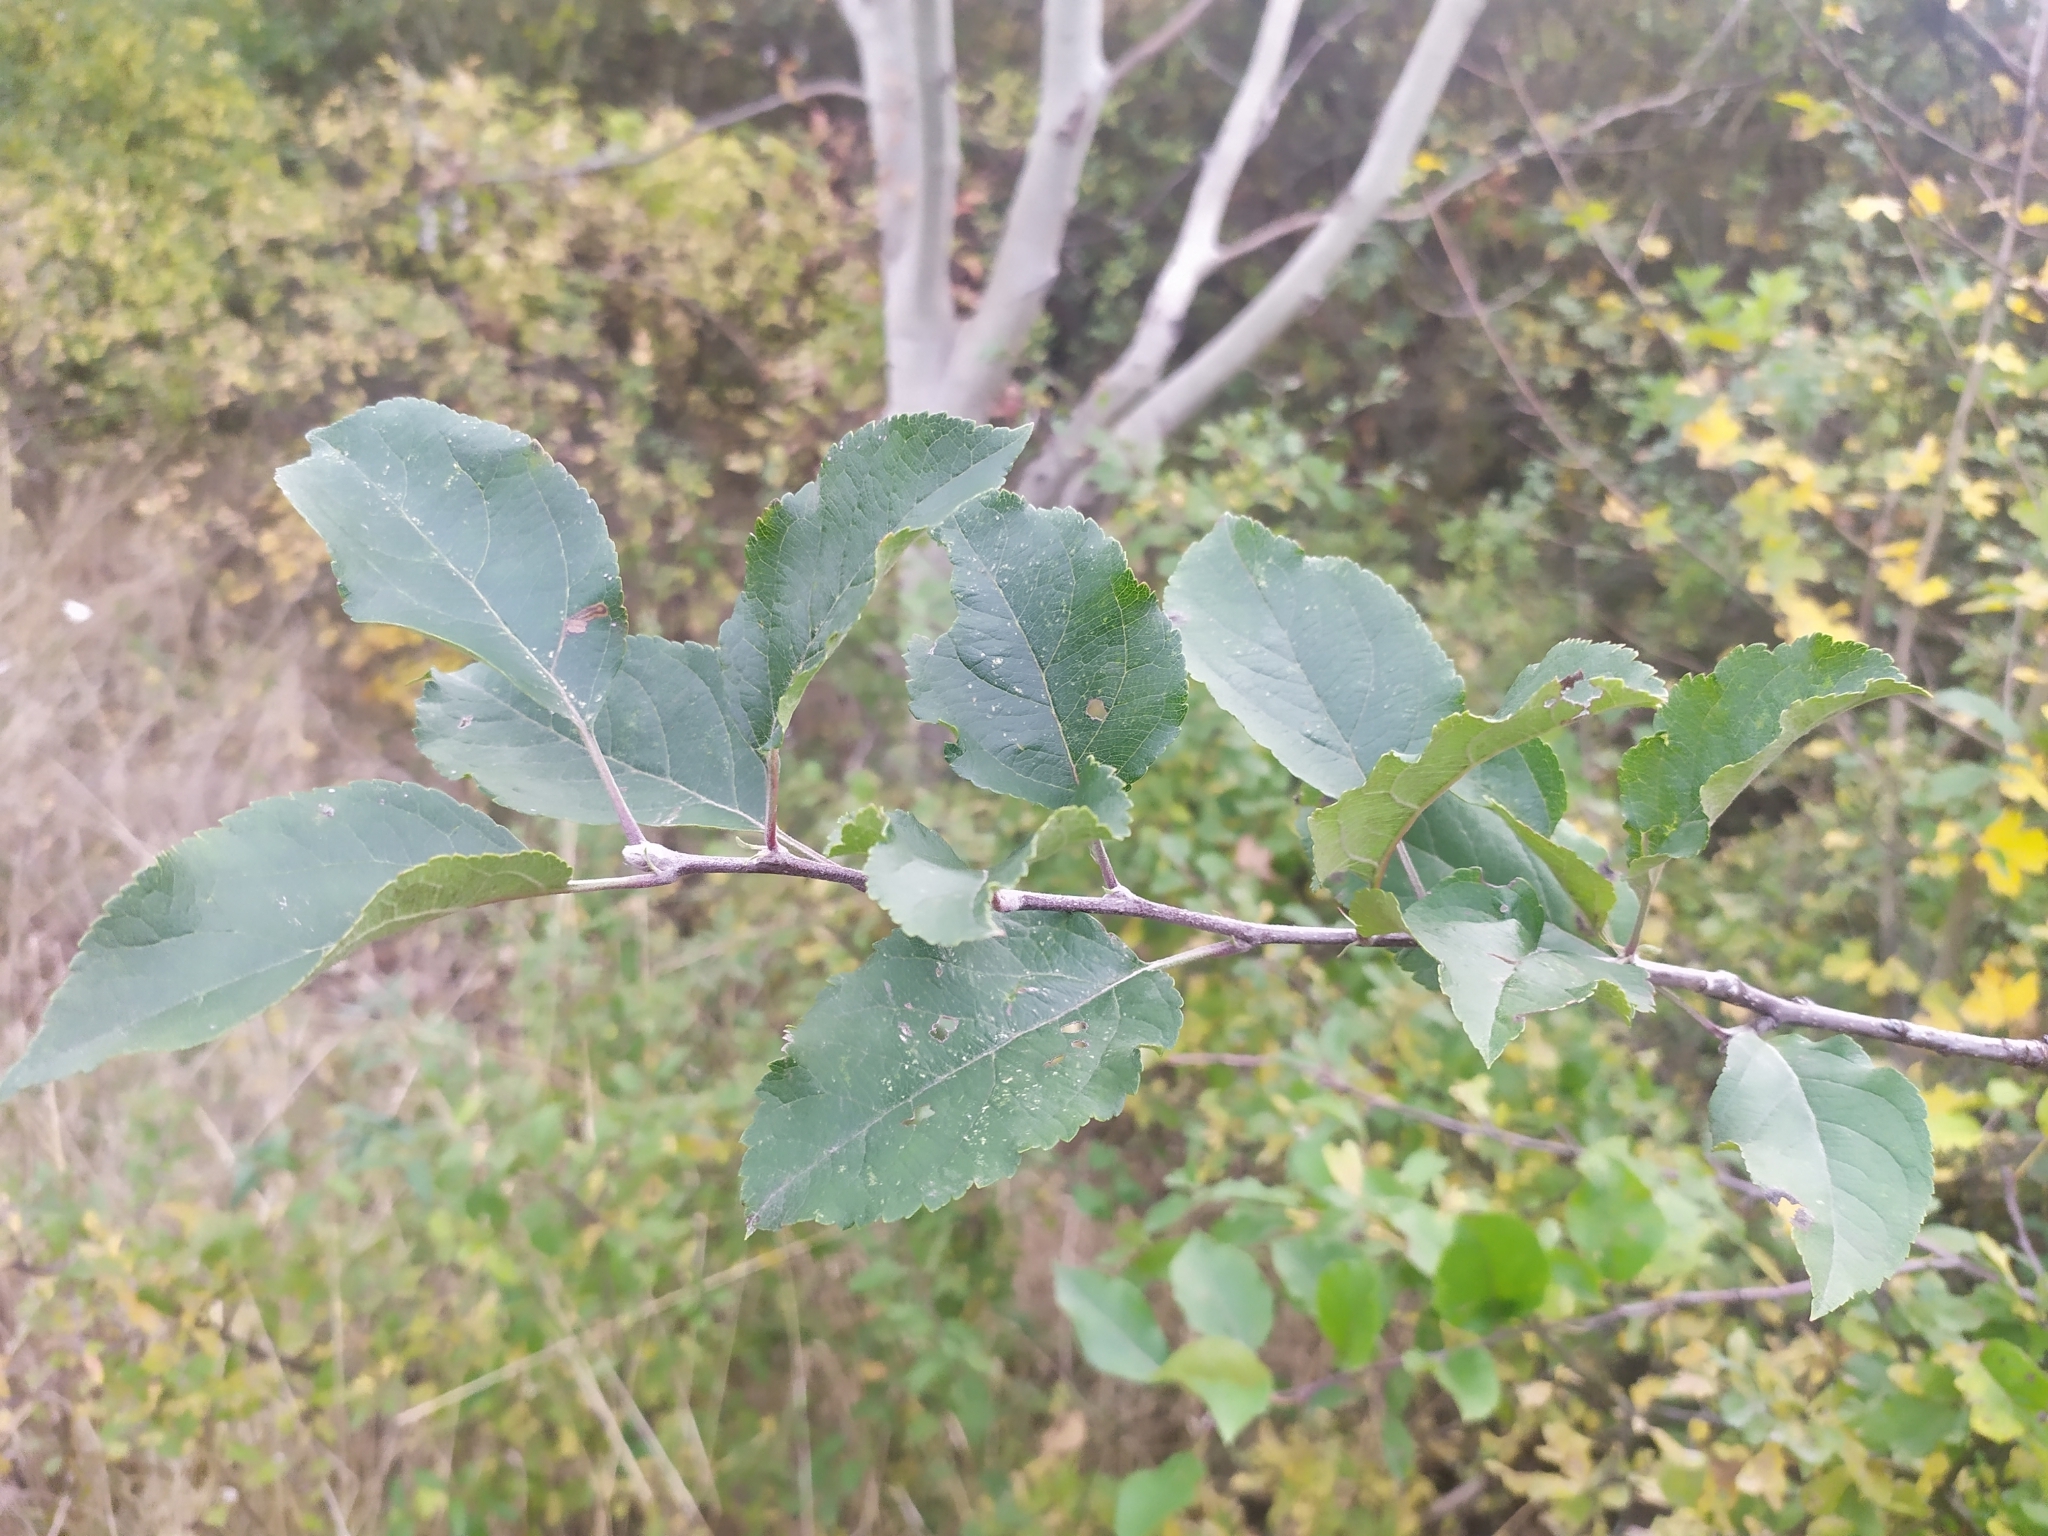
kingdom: Plantae
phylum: Tracheophyta
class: Magnoliopsida
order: Rosales
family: Rosaceae
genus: Malus
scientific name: Malus domestica
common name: Apple
